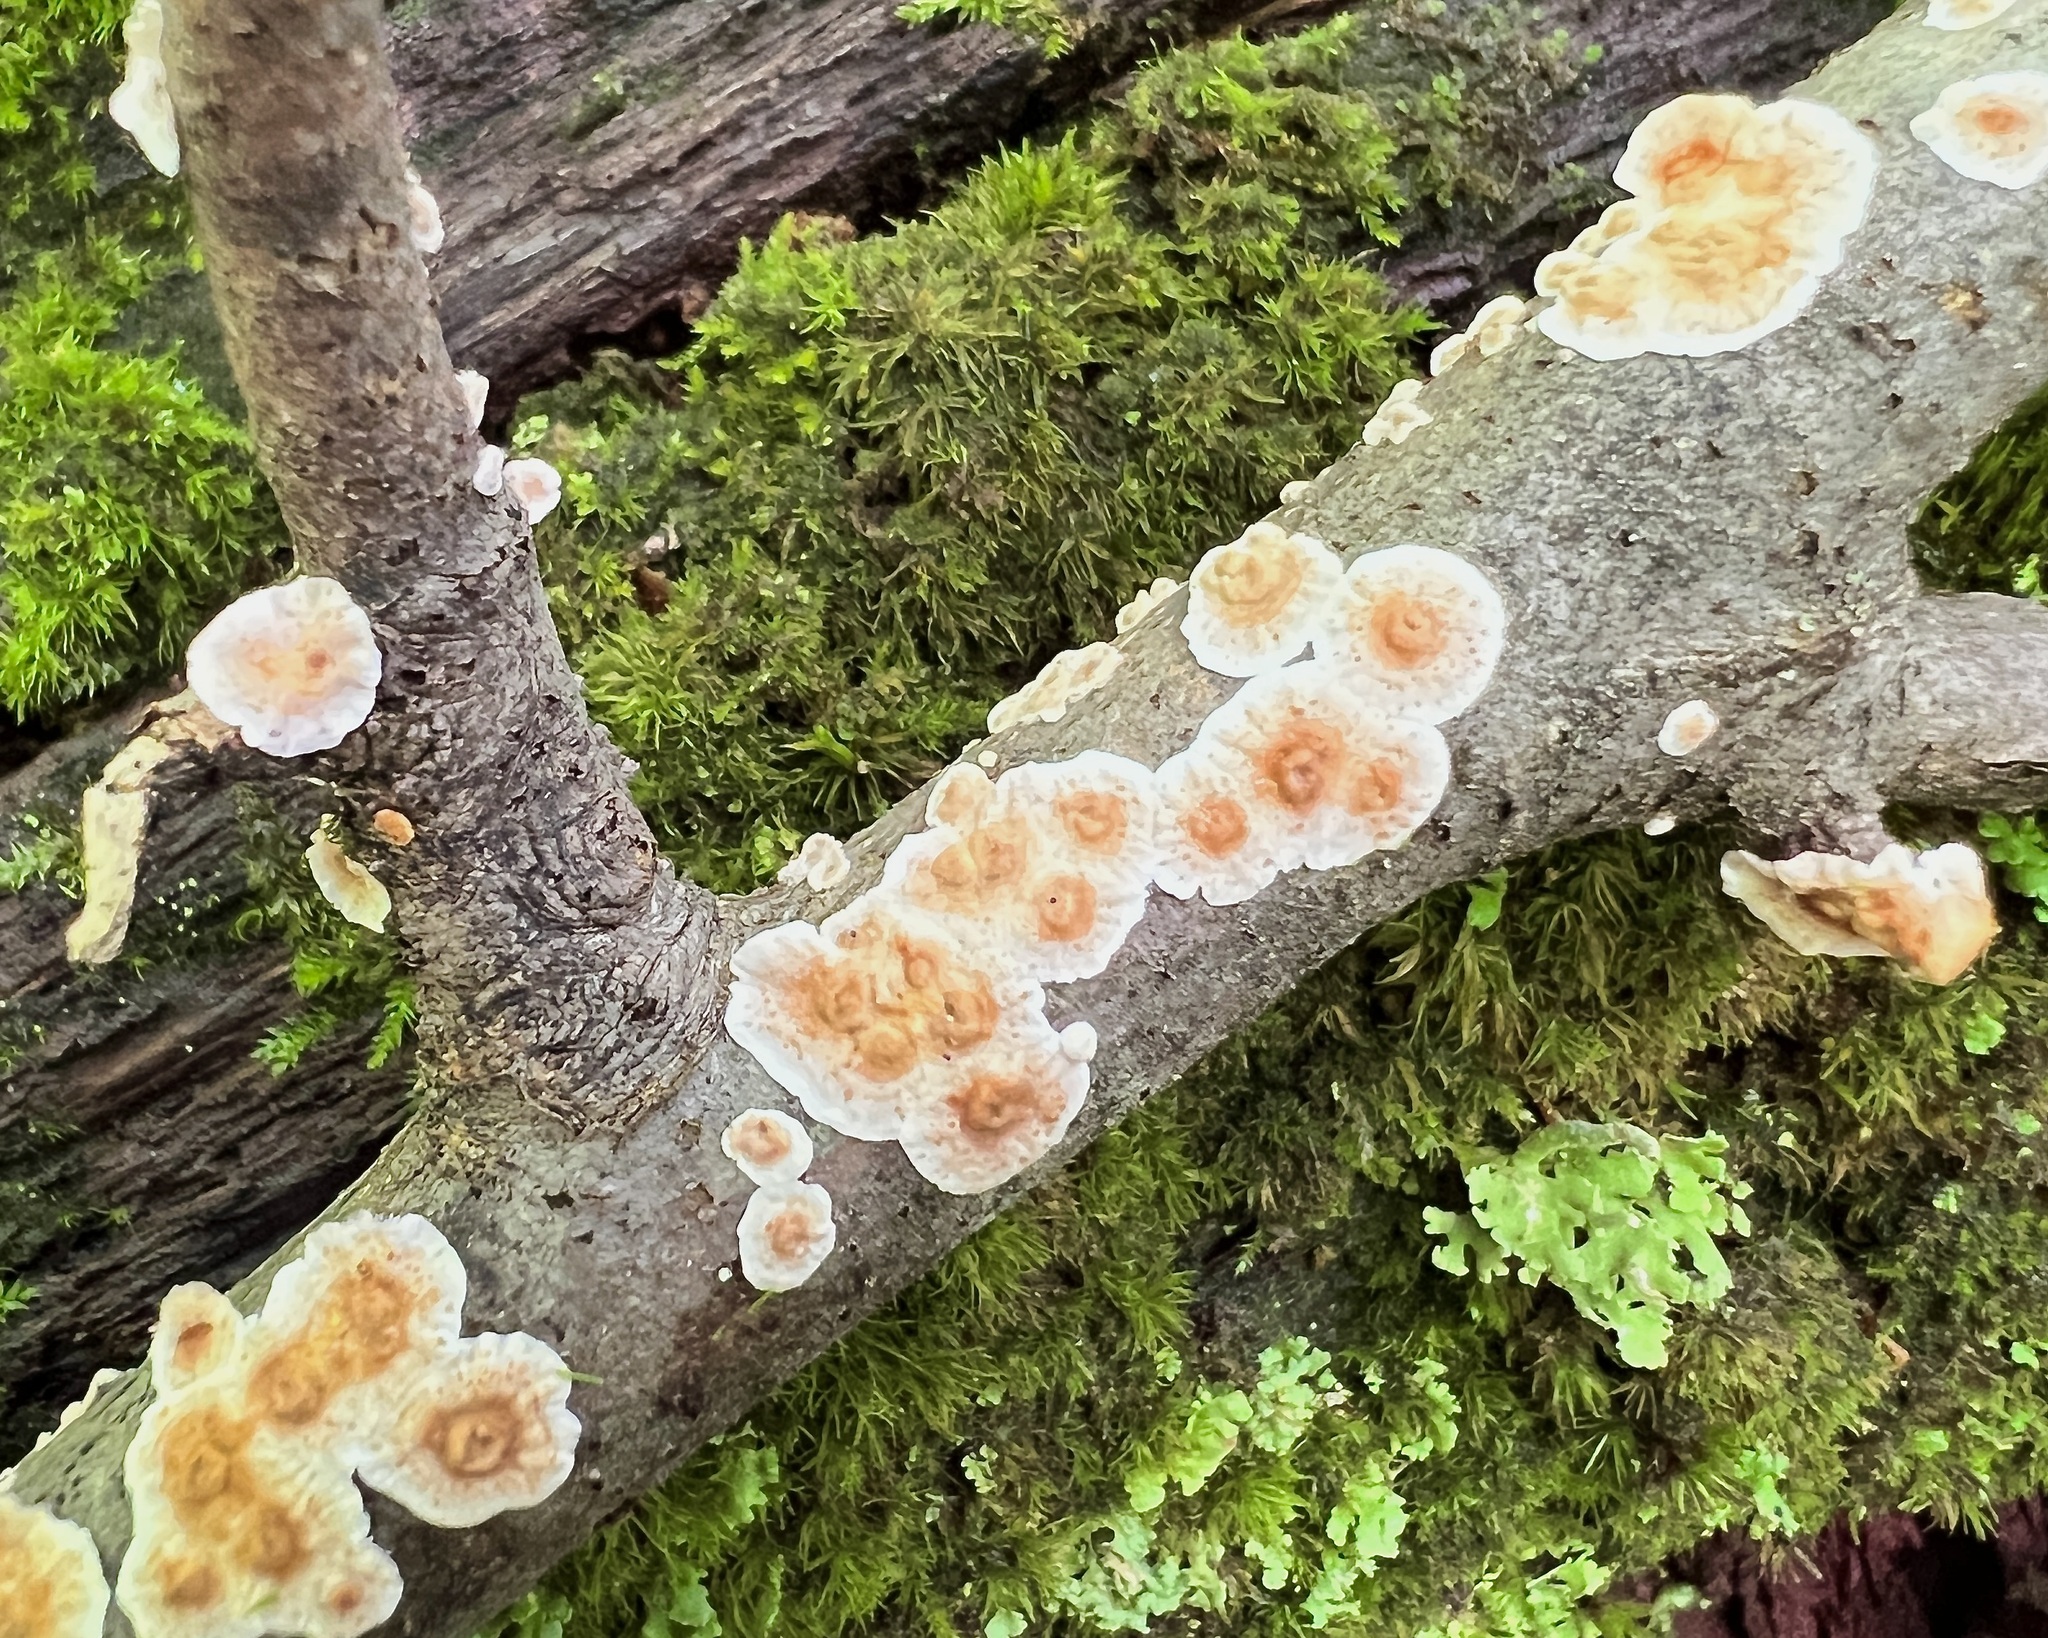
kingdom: Fungi
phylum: Basidiomycota
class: Agaricomycetes
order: Russulales
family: Stereaceae
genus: Stereum
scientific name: Stereum striatum
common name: Silky parchment
